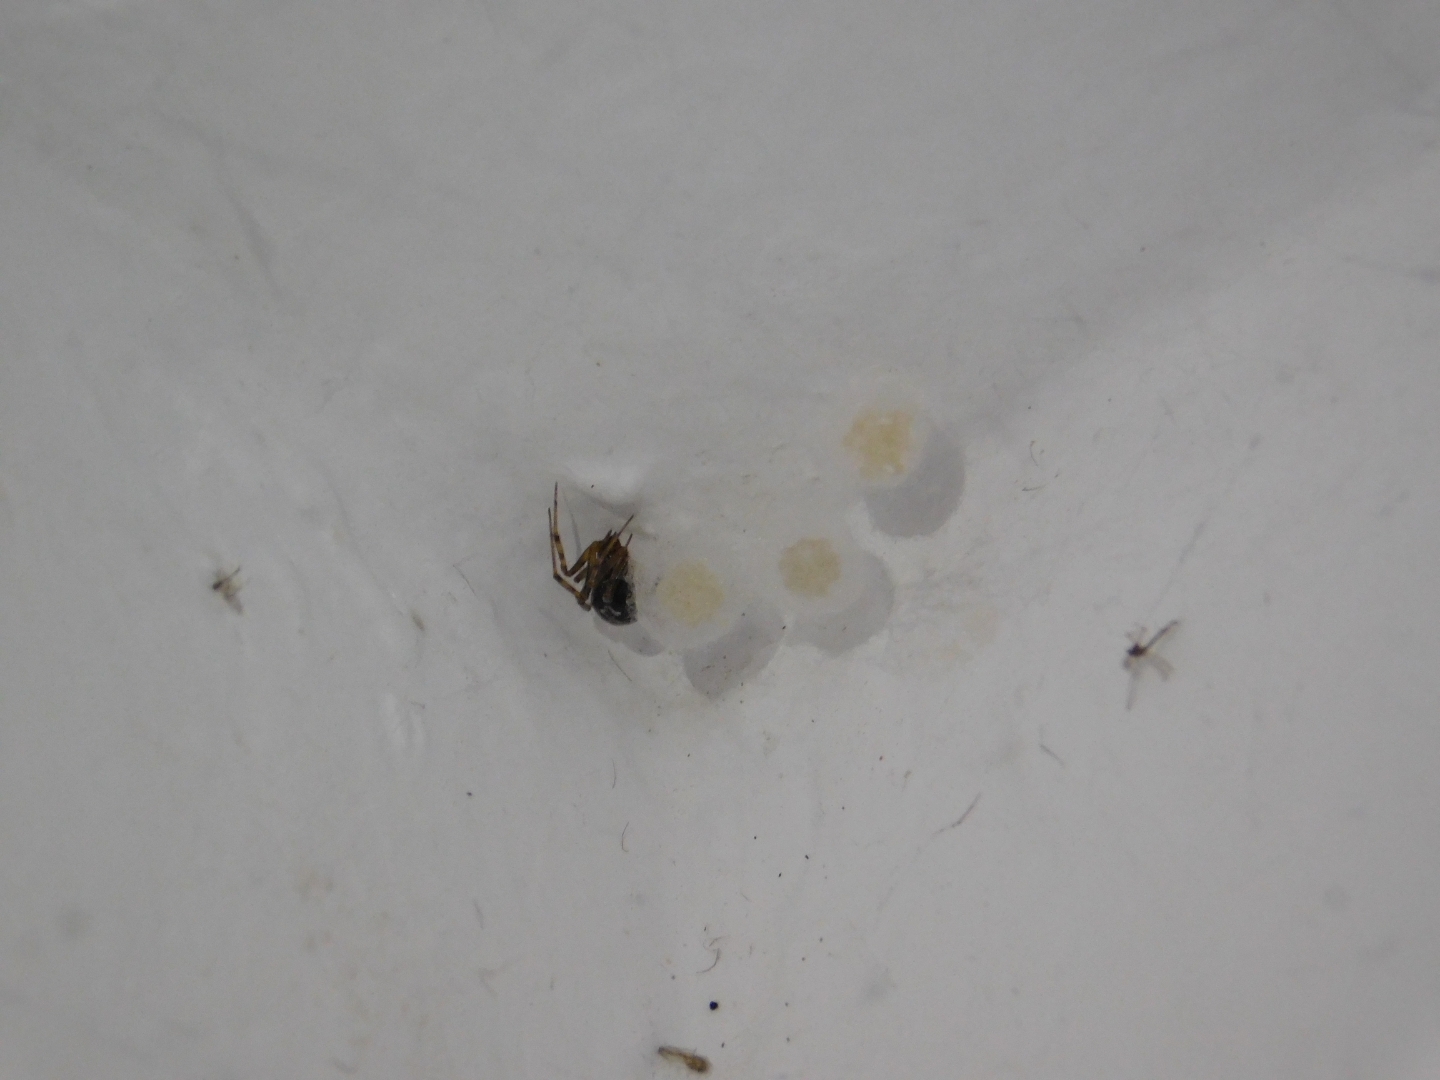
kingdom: Animalia
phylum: Arthropoda
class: Arachnida
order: Araneae
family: Theridiidae
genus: Steatoda
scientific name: Steatoda triangulosa
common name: Triangulate bud spider
